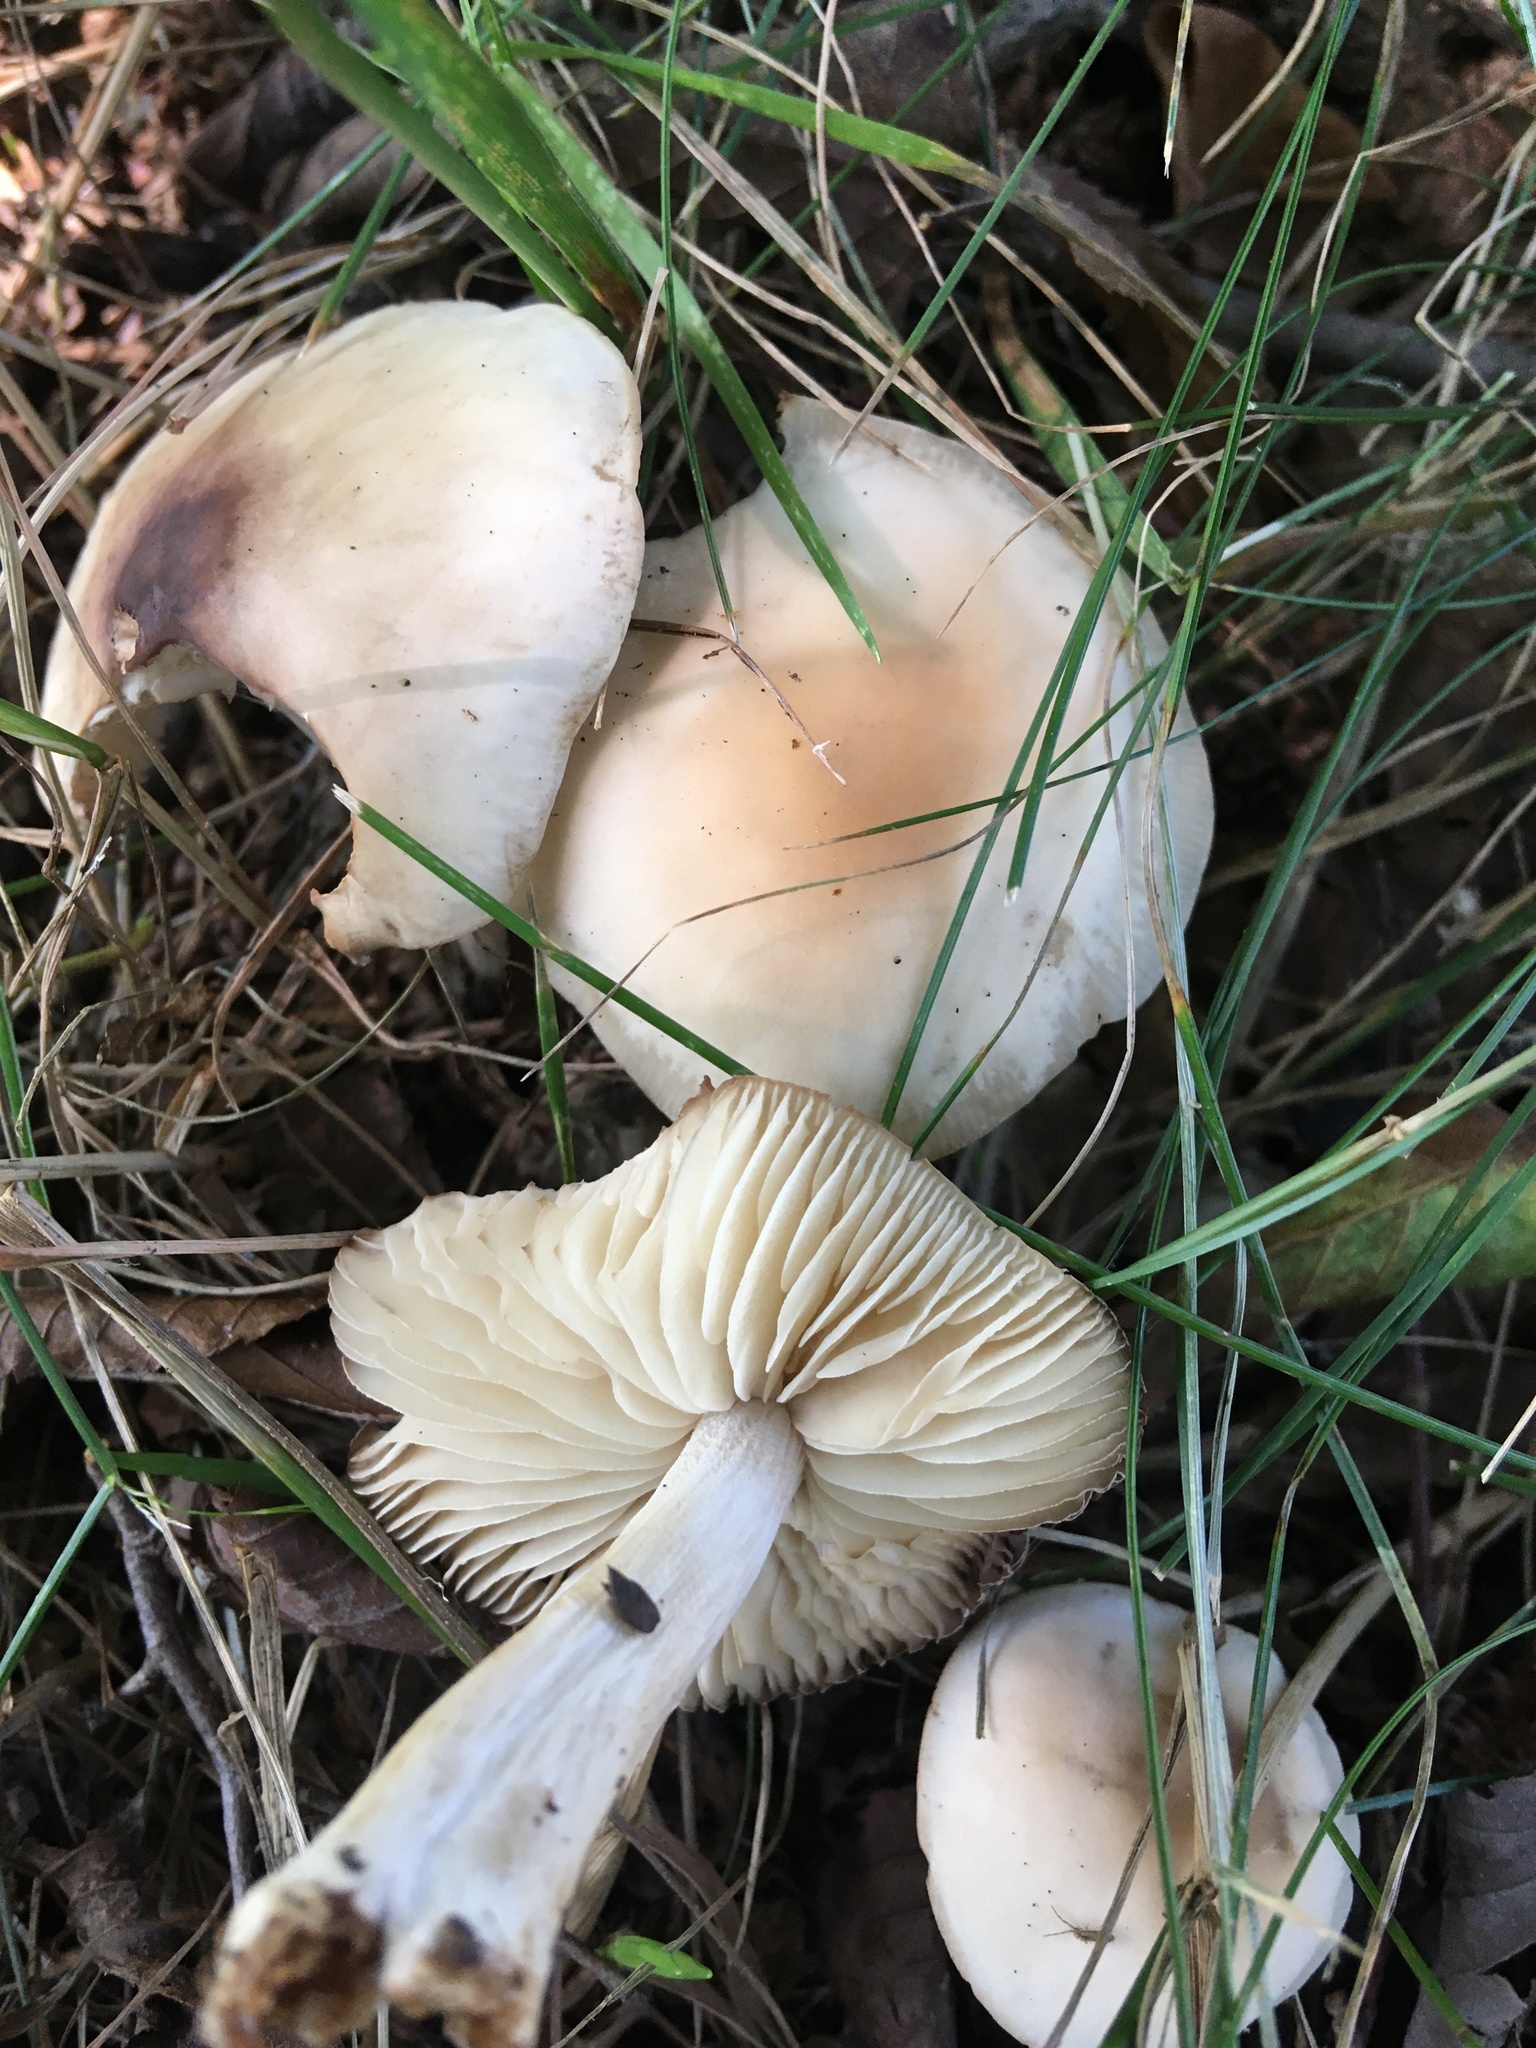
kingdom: Fungi
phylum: Basidiomycota
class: Agaricomycetes
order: Agaricales
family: Marasmiaceae
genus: Marasmius
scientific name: Marasmius oreades
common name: Fairy ring champignon
